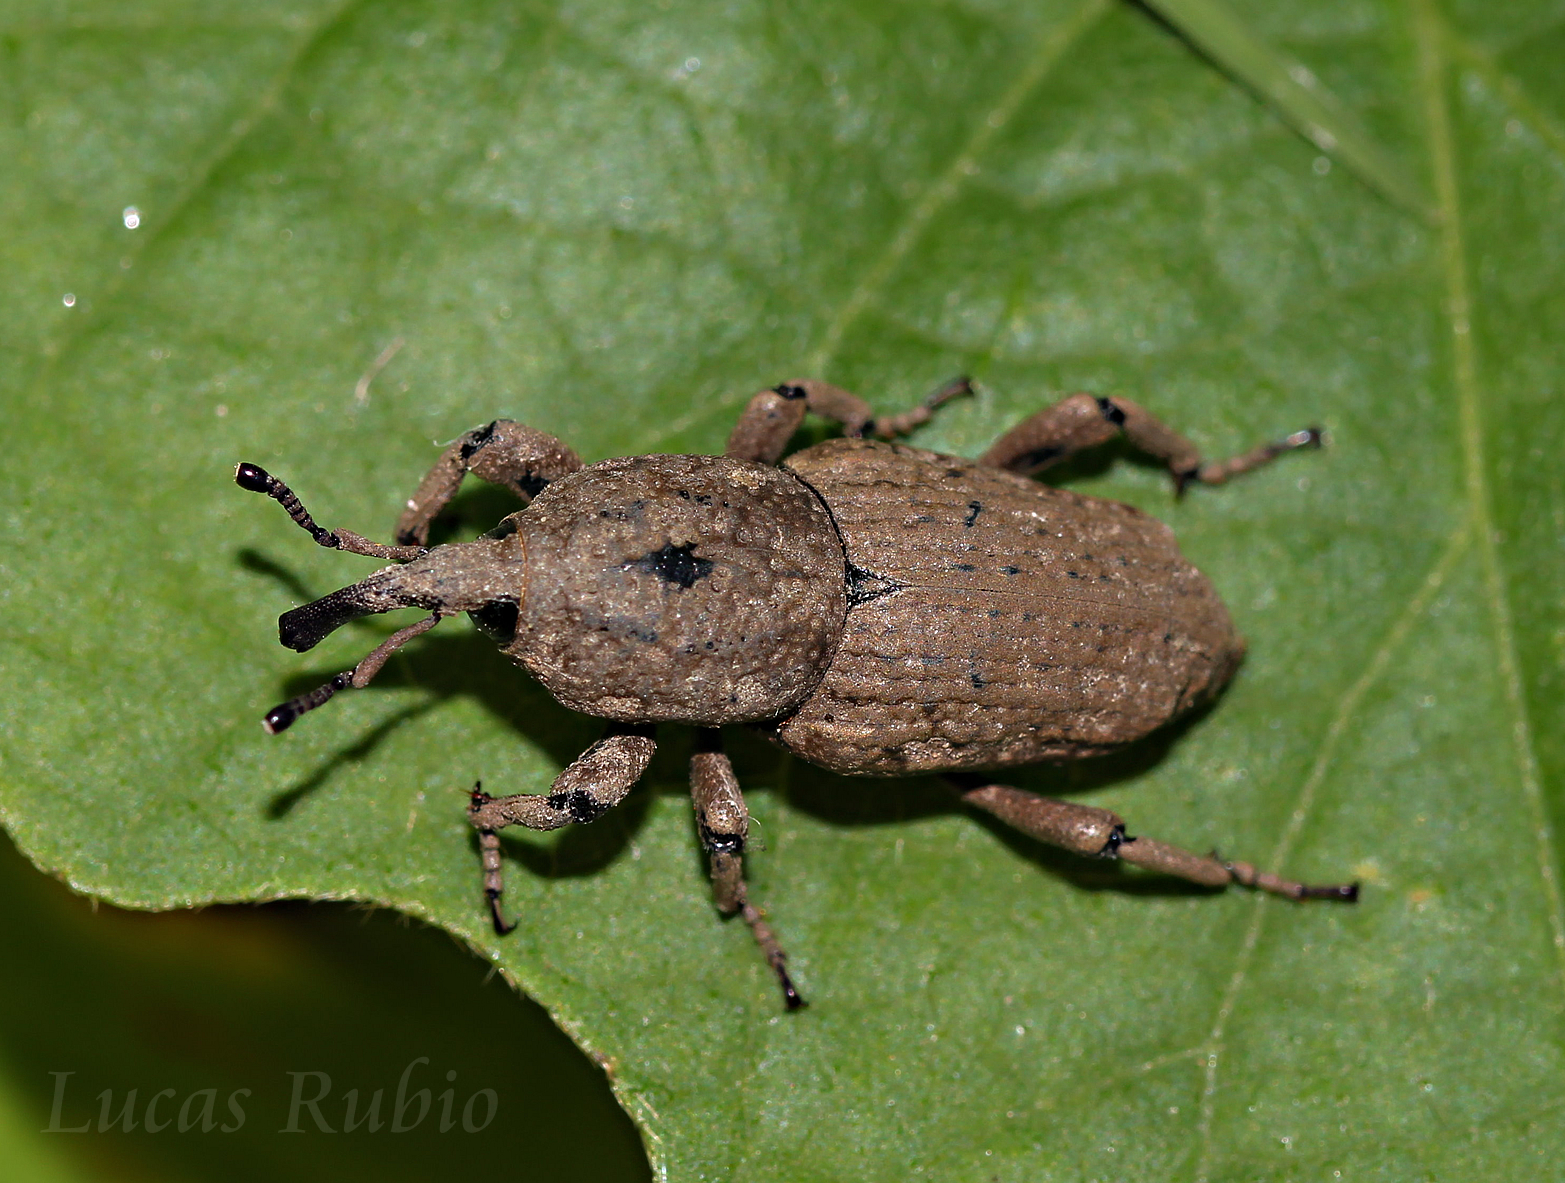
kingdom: Animalia
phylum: Arthropoda
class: Insecta
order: Coleoptera
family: Dryophthoridae
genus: Sphenophorus
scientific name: Sphenophorus rusticus
